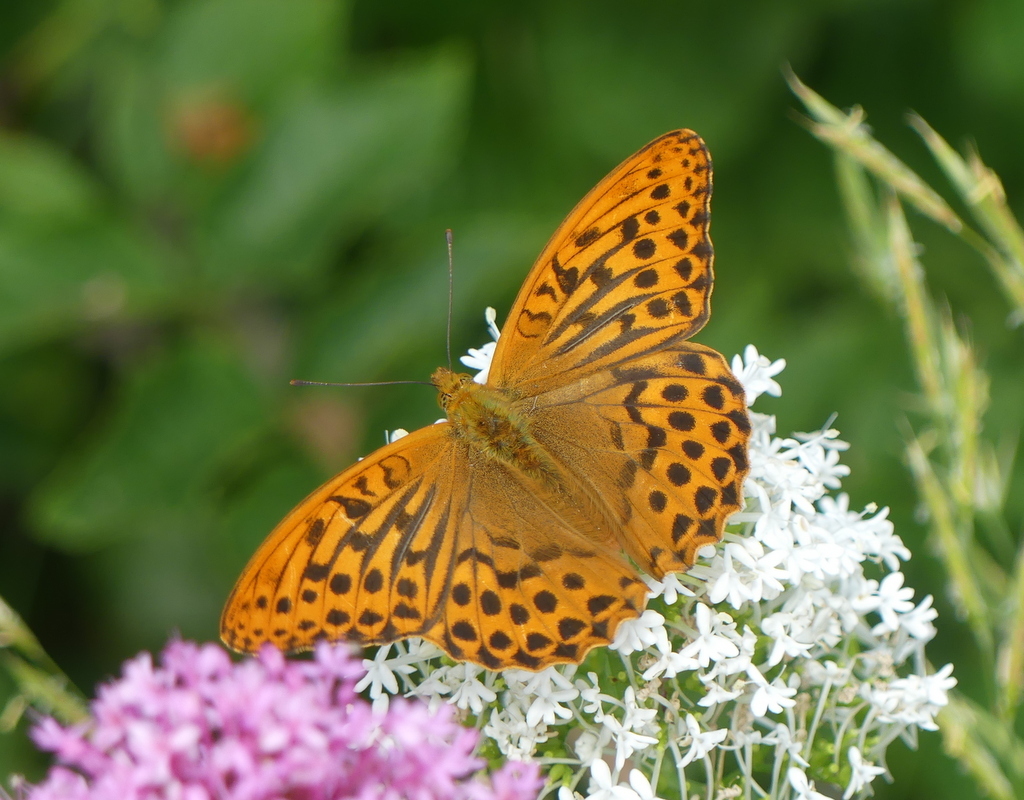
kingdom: Animalia
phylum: Arthropoda
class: Insecta
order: Lepidoptera
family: Nymphalidae
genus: Argynnis
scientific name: Argynnis paphia
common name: Silver-washed fritillary
